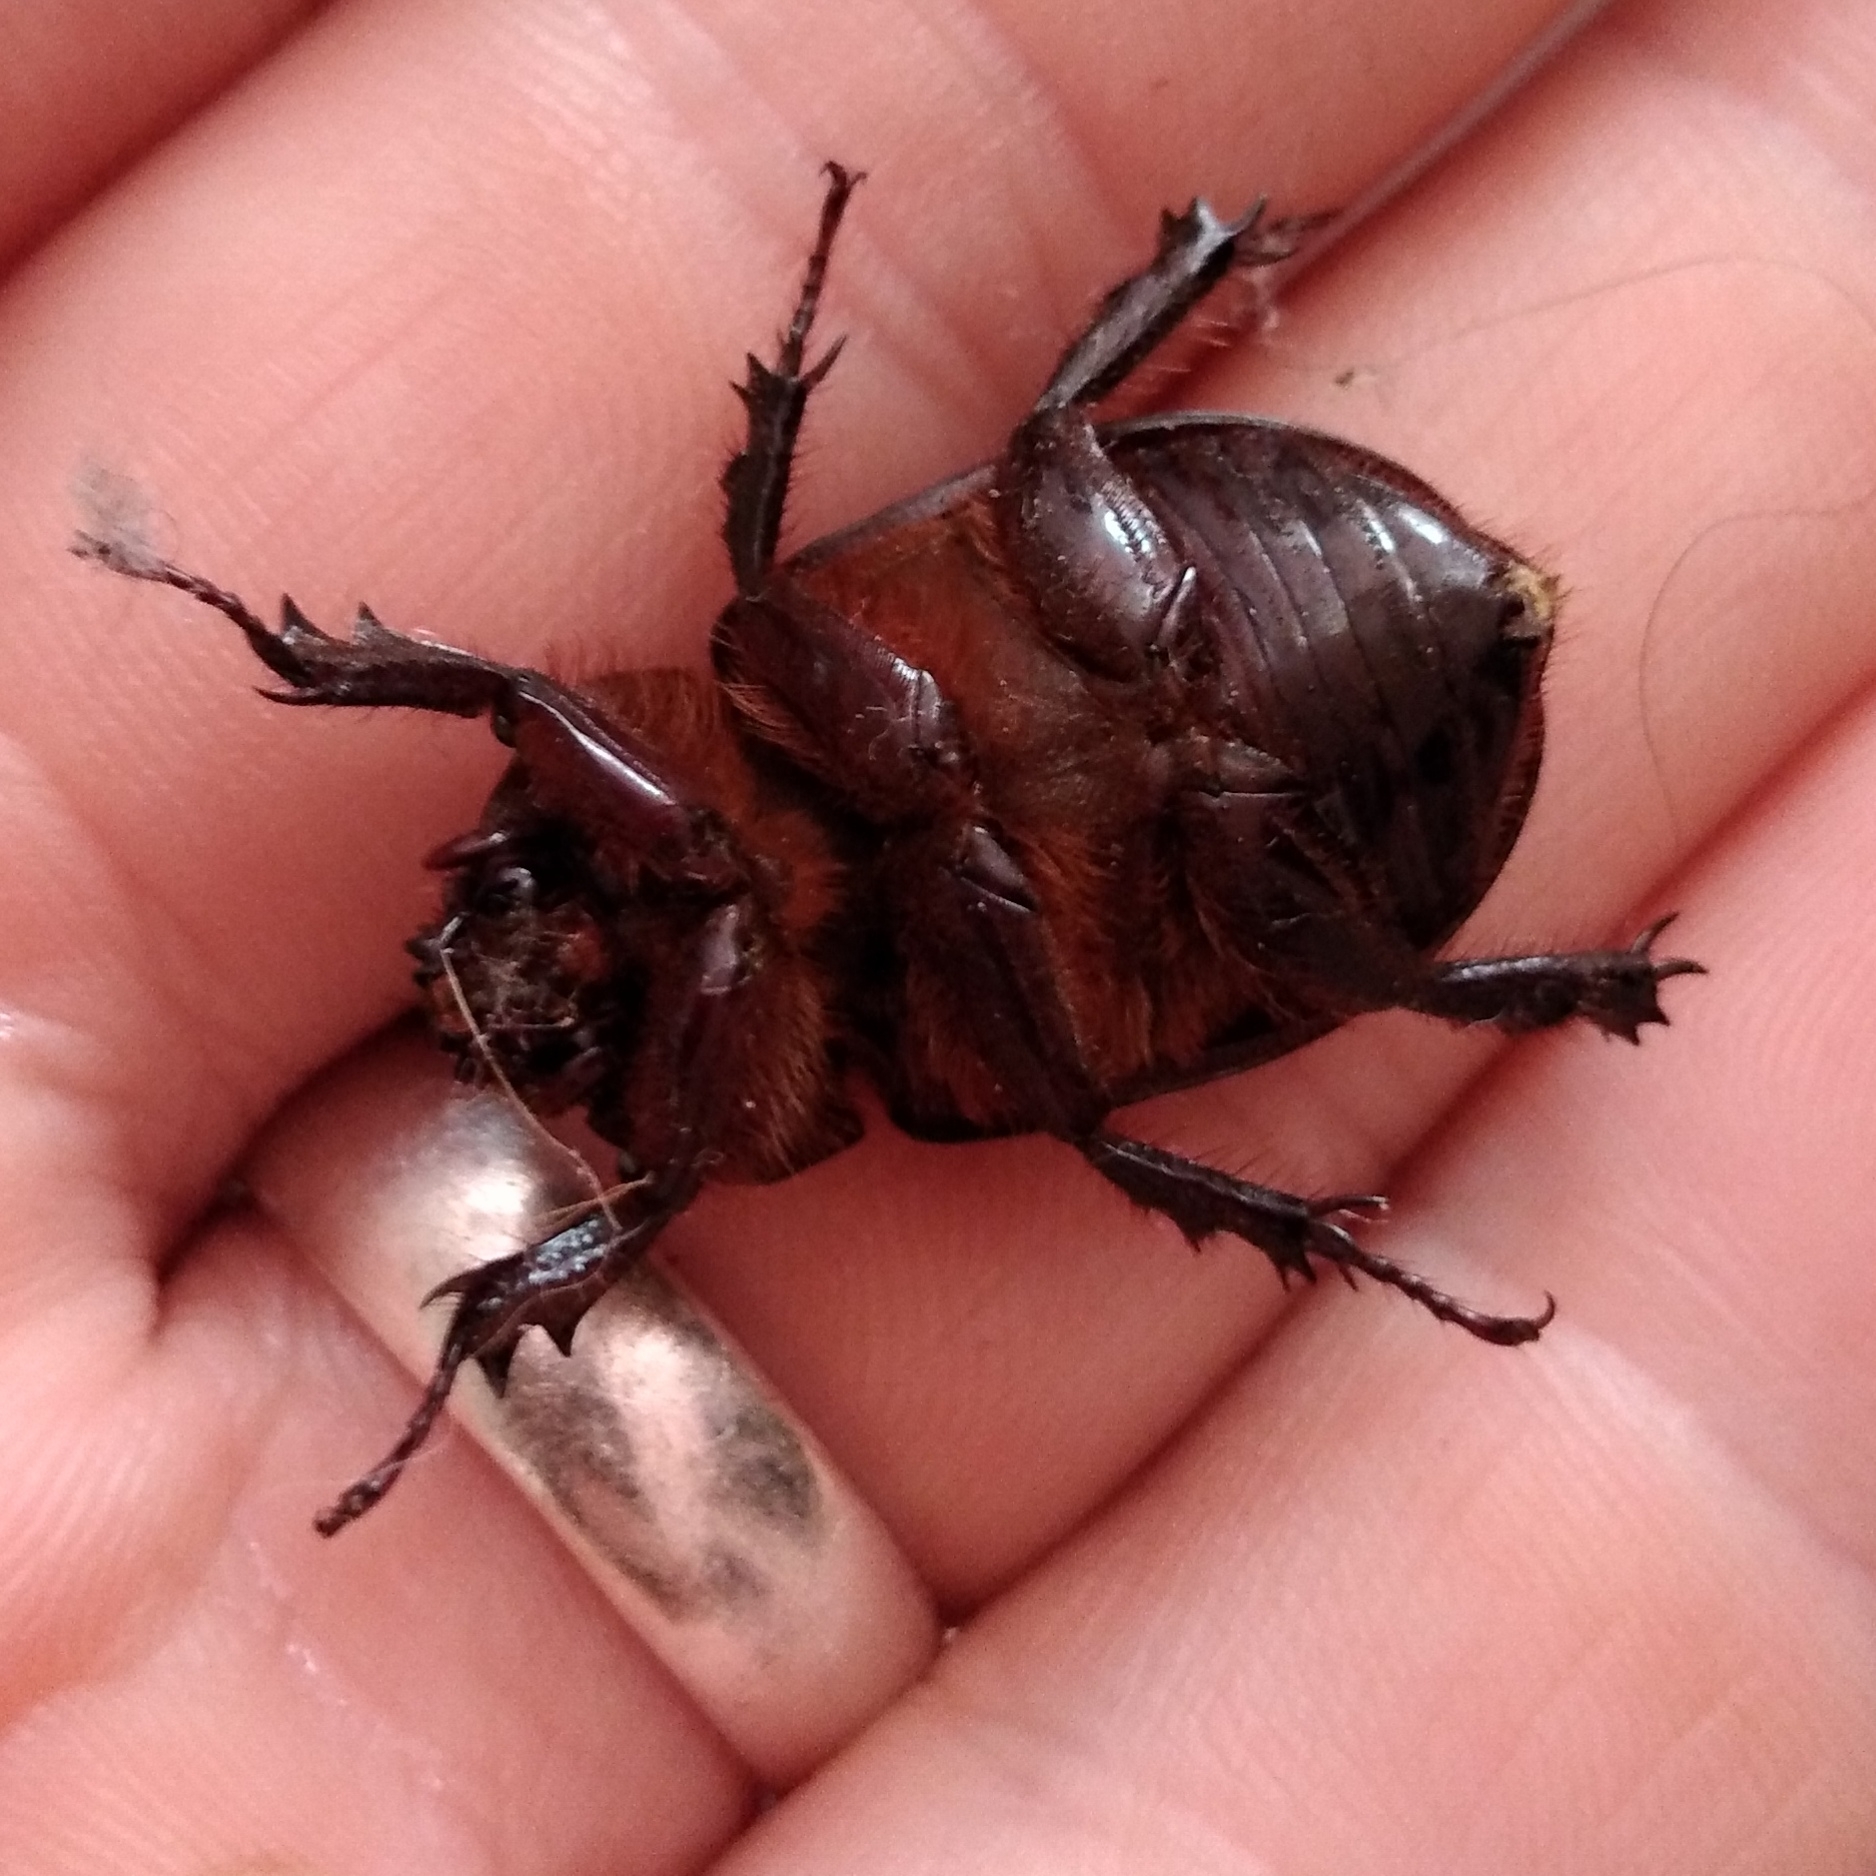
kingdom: Animalia
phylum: Arthropoda
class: Insecta
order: Coleoptera
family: Scarabaeidae
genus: Cyphonistes
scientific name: Cyphonistes vallatus
